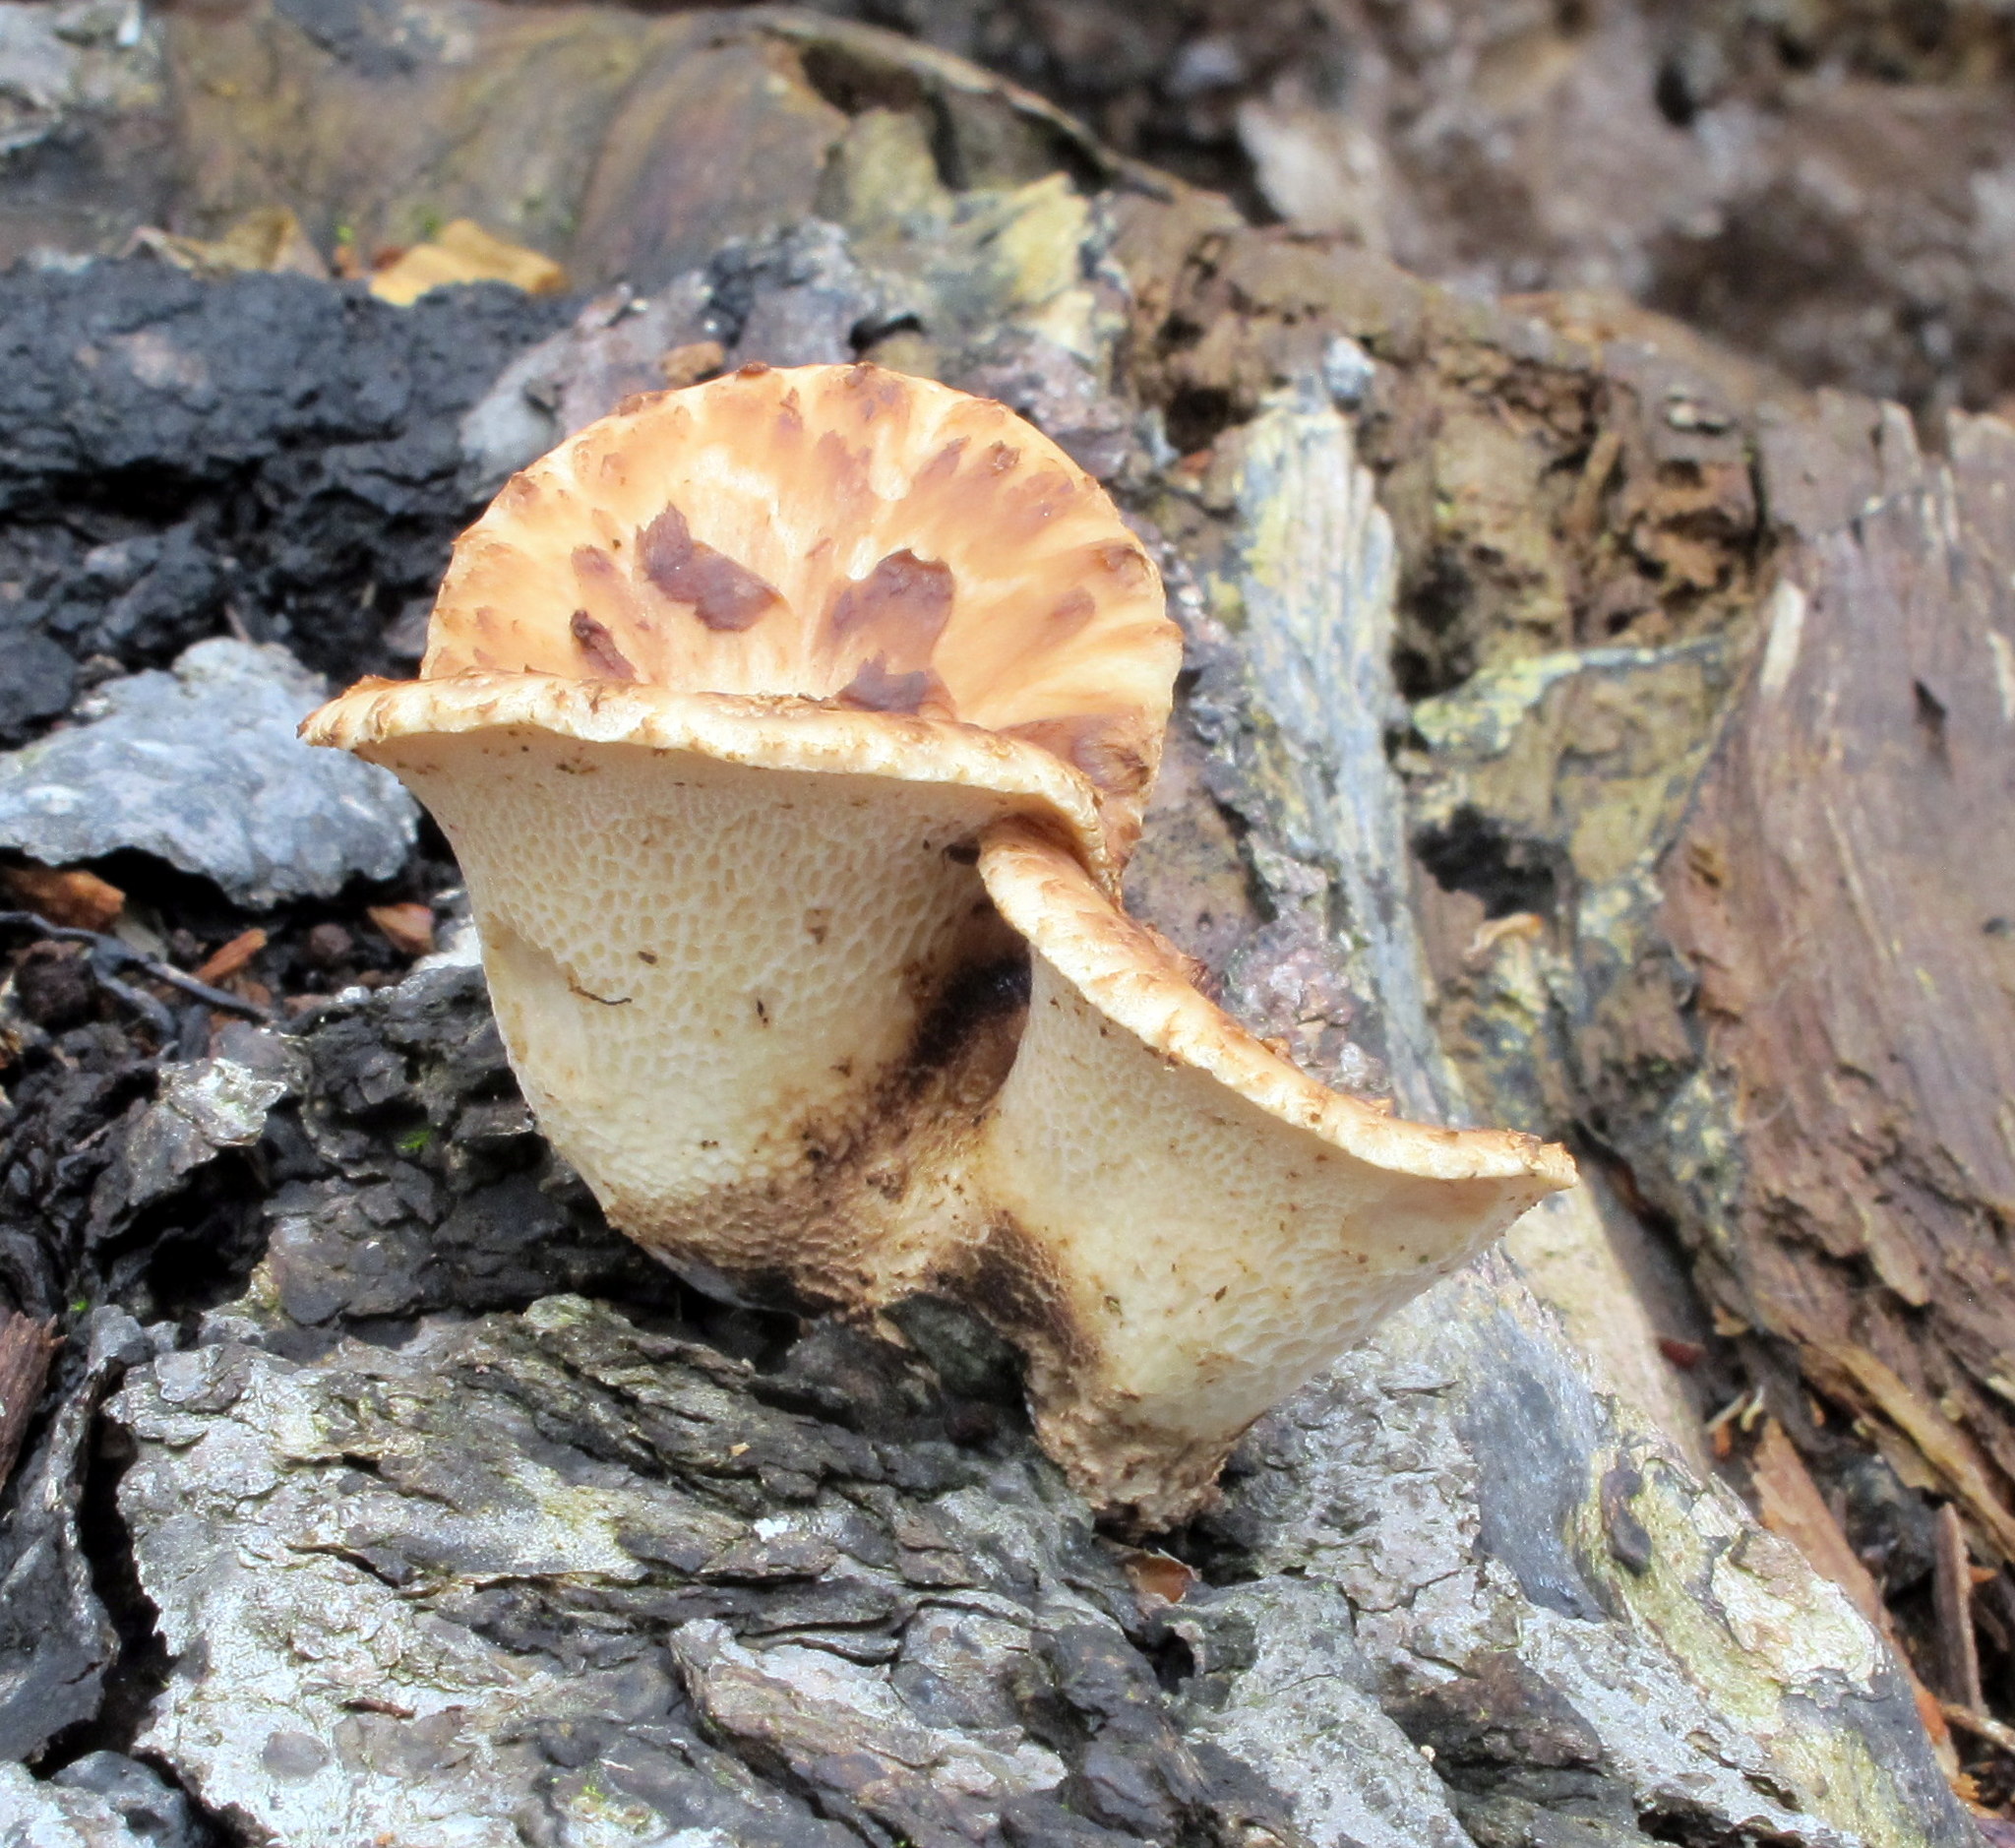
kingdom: Fungi
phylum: Basidiomycota
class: Agaricomycetes
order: Polyporales
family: Polyporaceae
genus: Cerioporus
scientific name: Cerioporus squamosus
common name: Dryad's saddle
